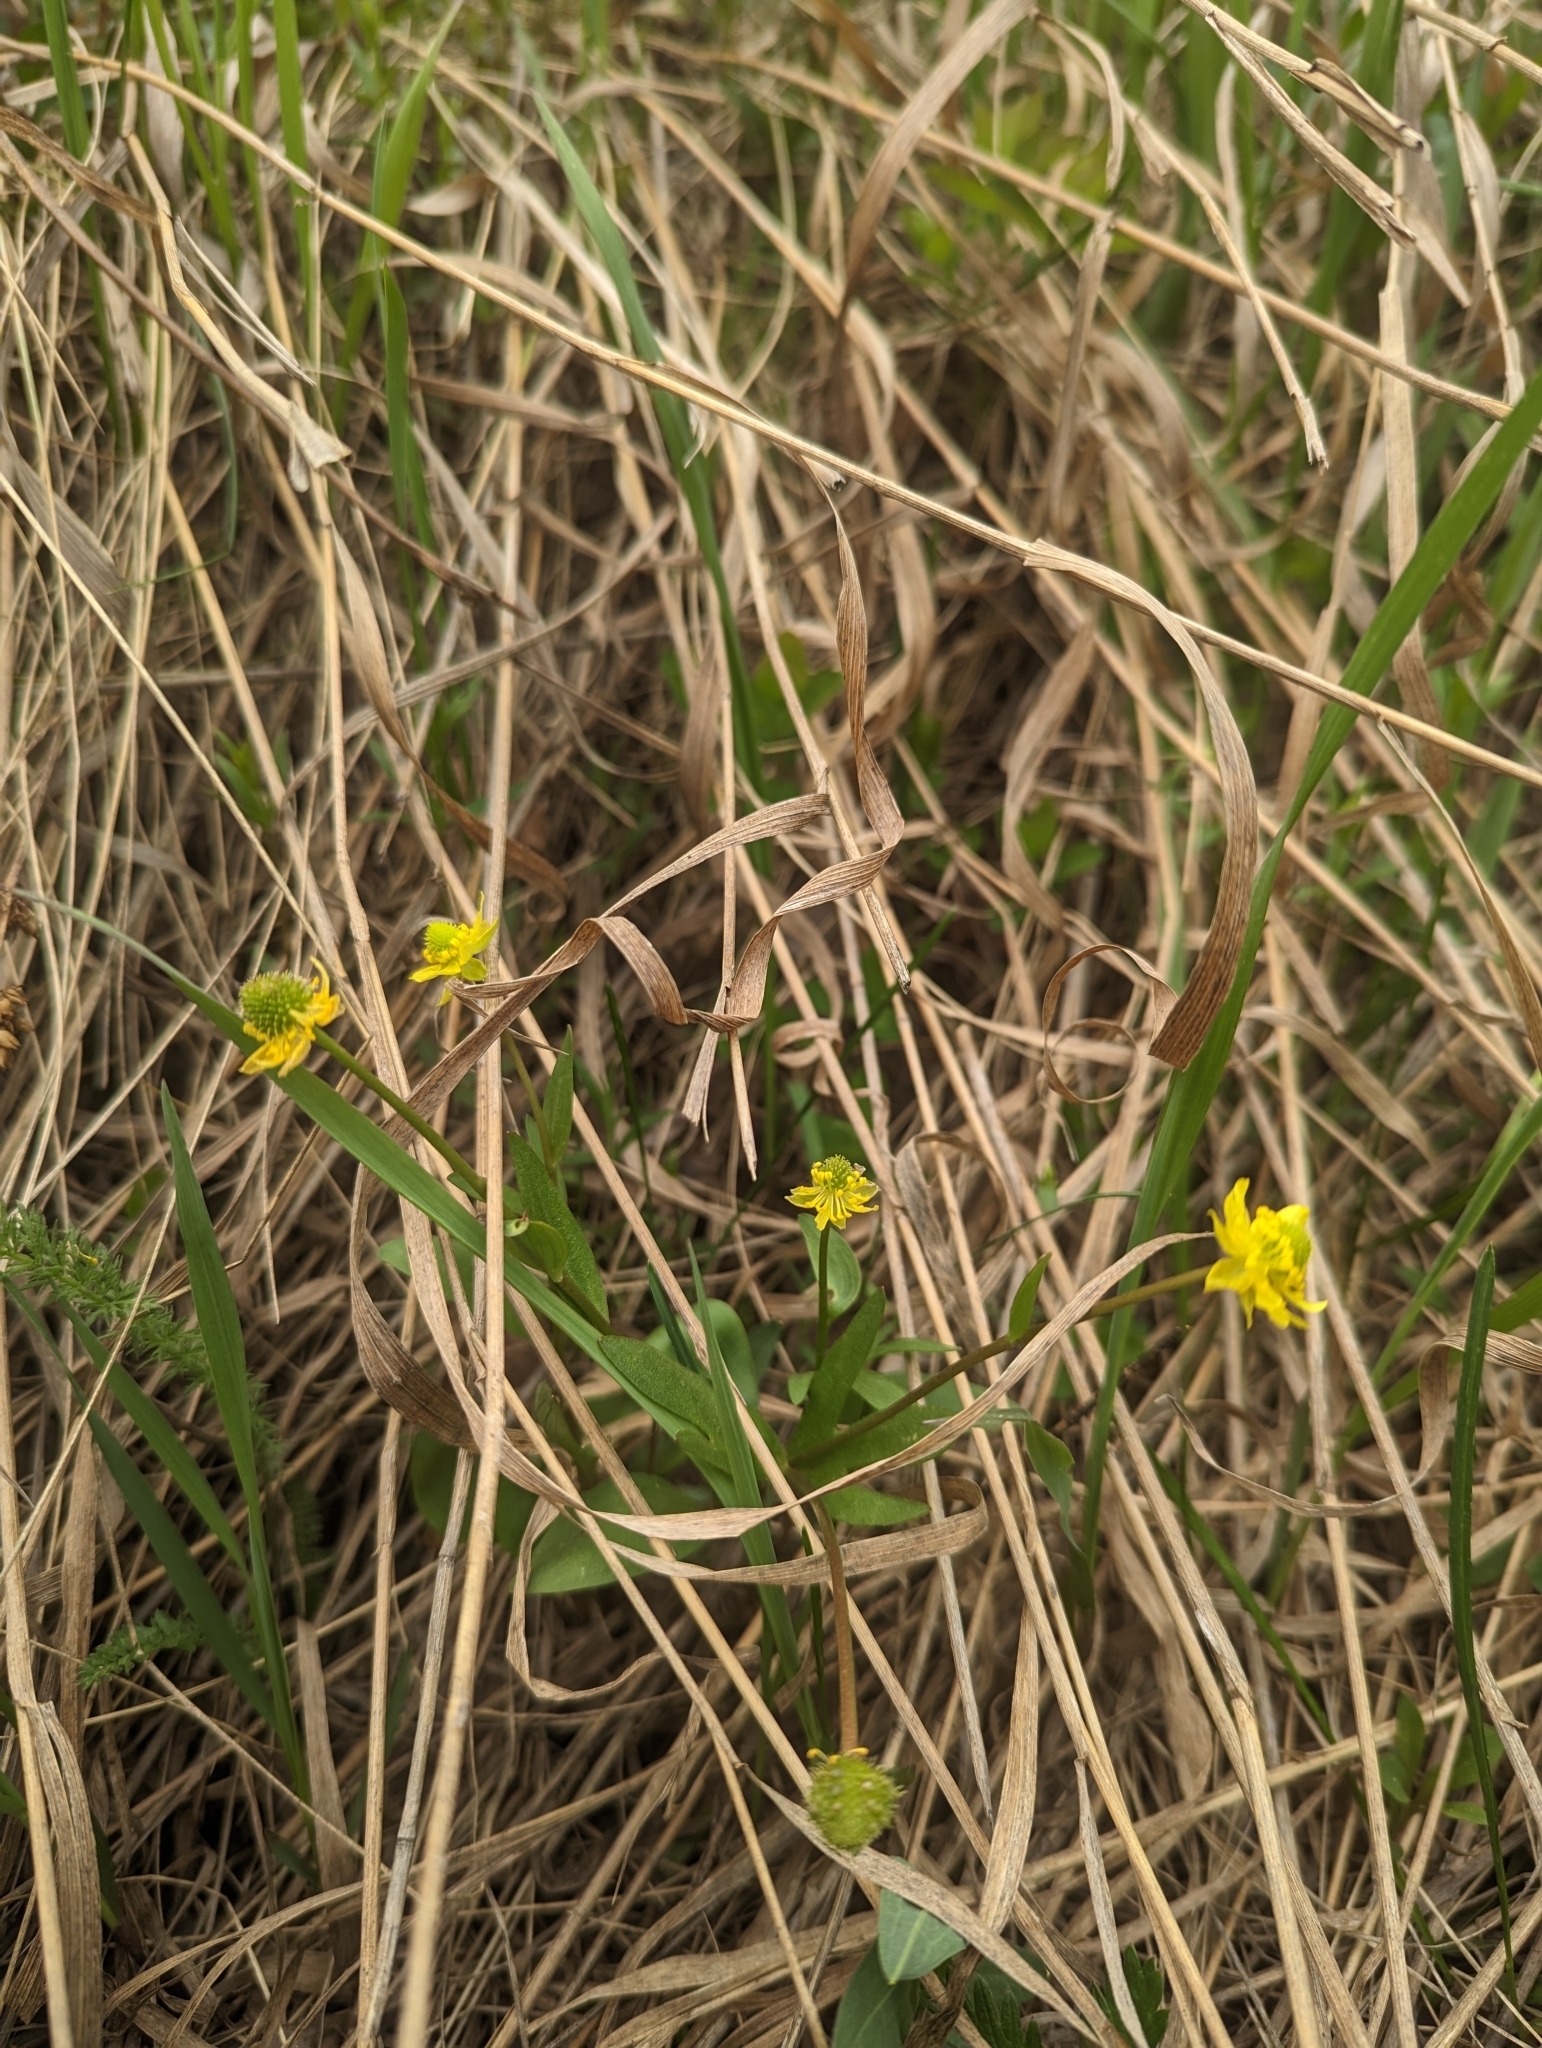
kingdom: Plantae
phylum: Tracheophyta
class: Magnoliopsida
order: Ranunculales
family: Ranunculaceae
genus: Ranunculus
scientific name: Ranunculus glaberrimus
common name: Sagebrush buttercup
